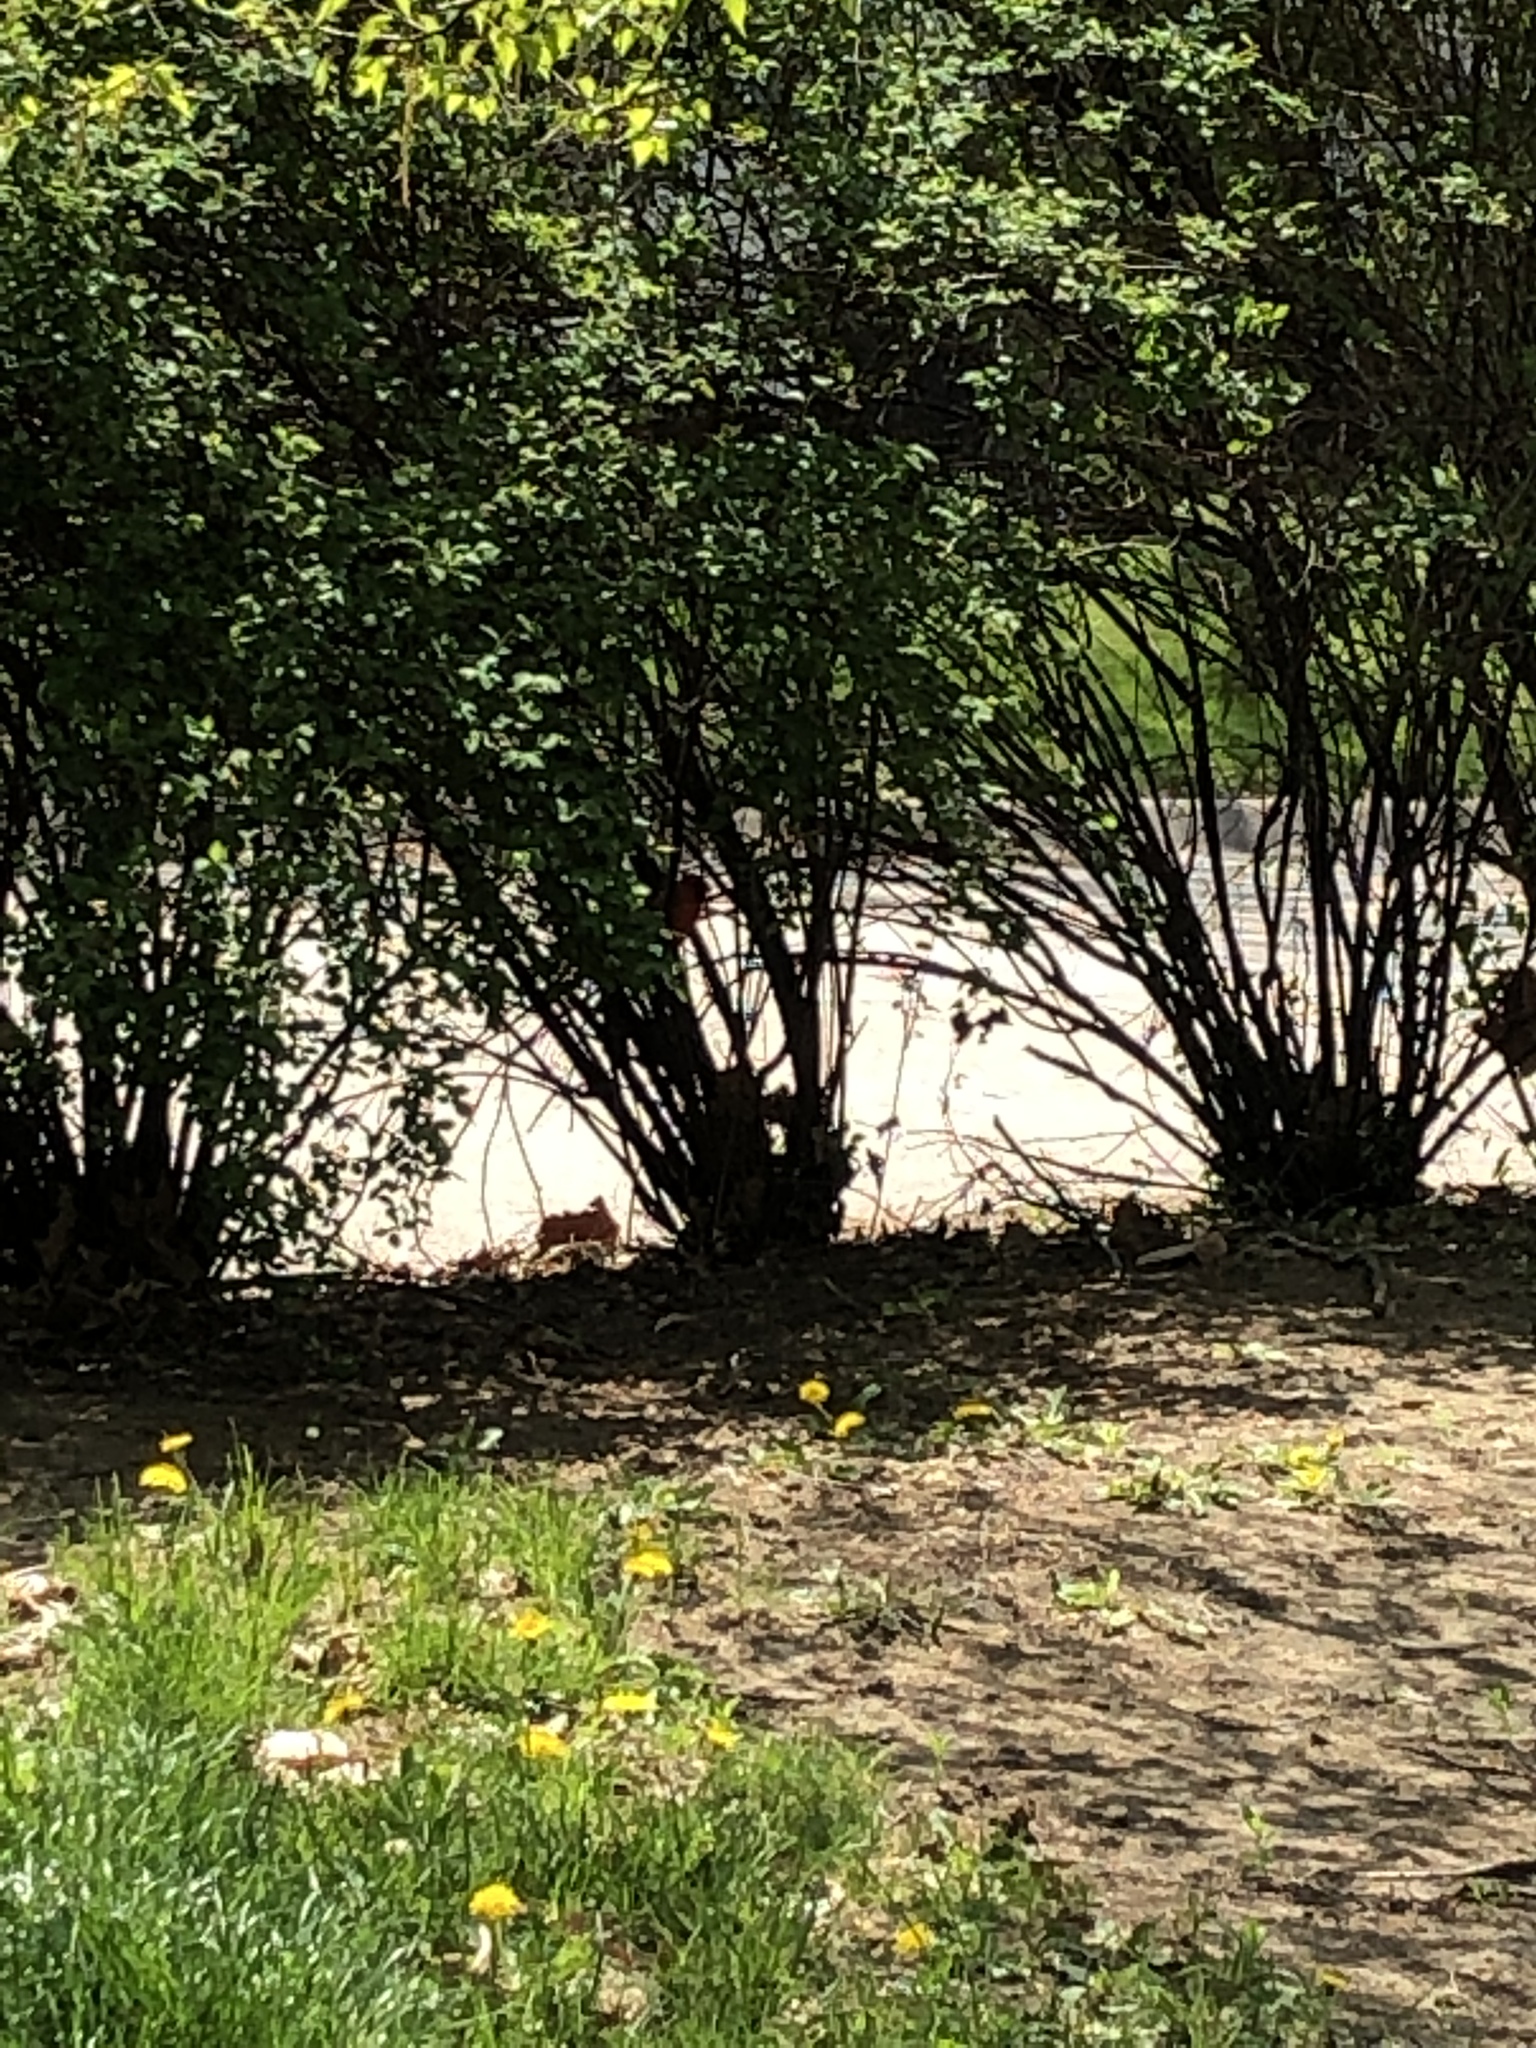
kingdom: Animalia
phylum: Chordata
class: Aves
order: Passeriformes
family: Cardinalidae
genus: Cardinalis
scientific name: Cardinalis cardinalis
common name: Northern cardinal
